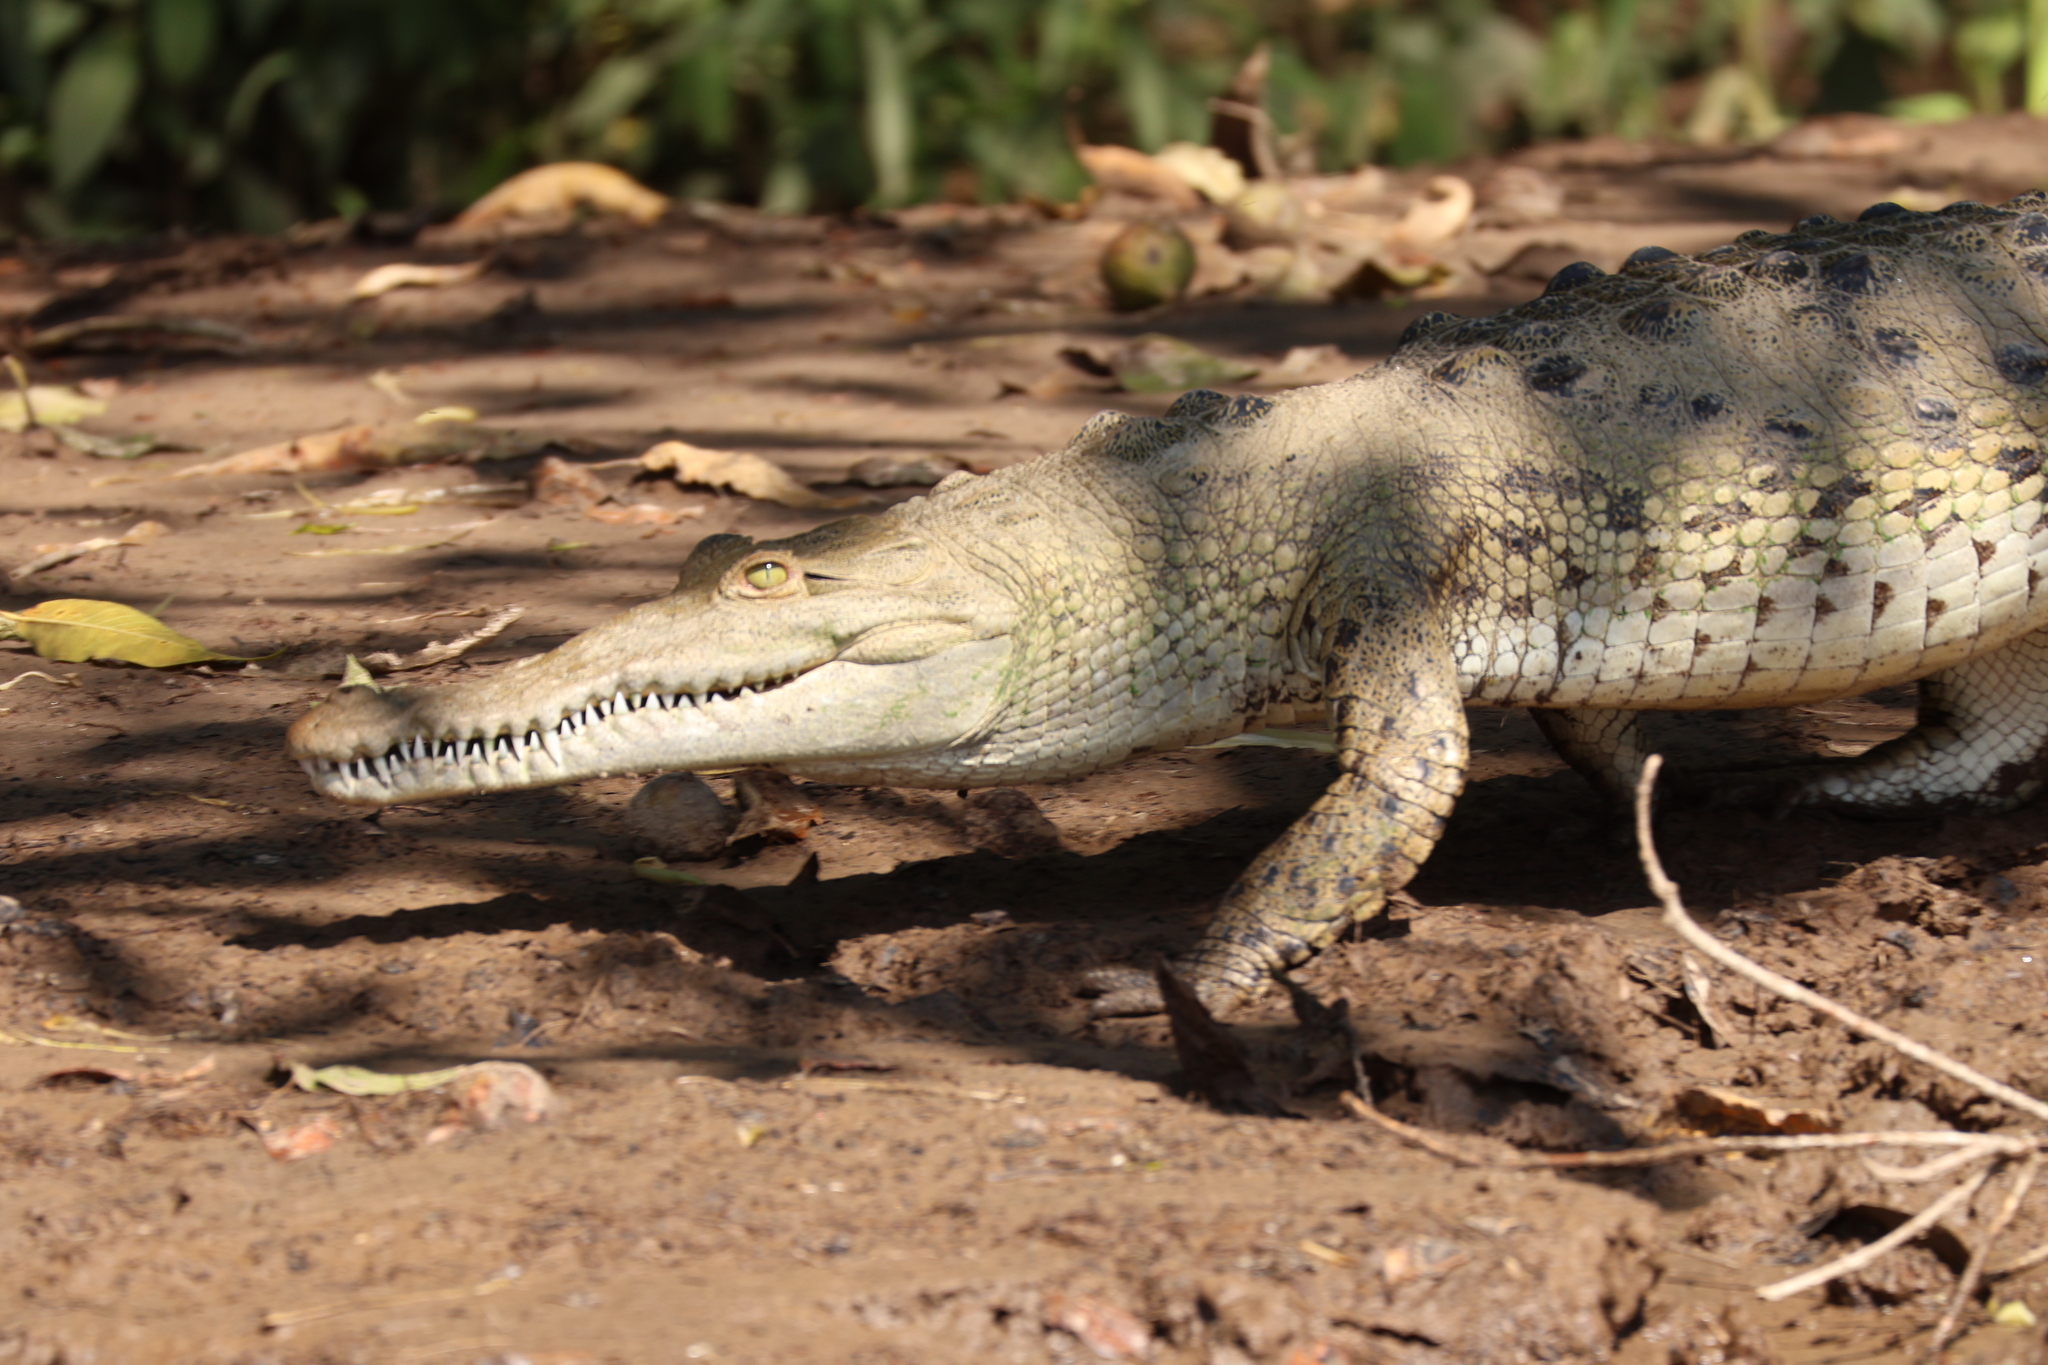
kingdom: Animalia
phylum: Chordata
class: Crocodylia
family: Crocodylidae
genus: Crocodylus
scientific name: Crocodylus acutus
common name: American crocodile
